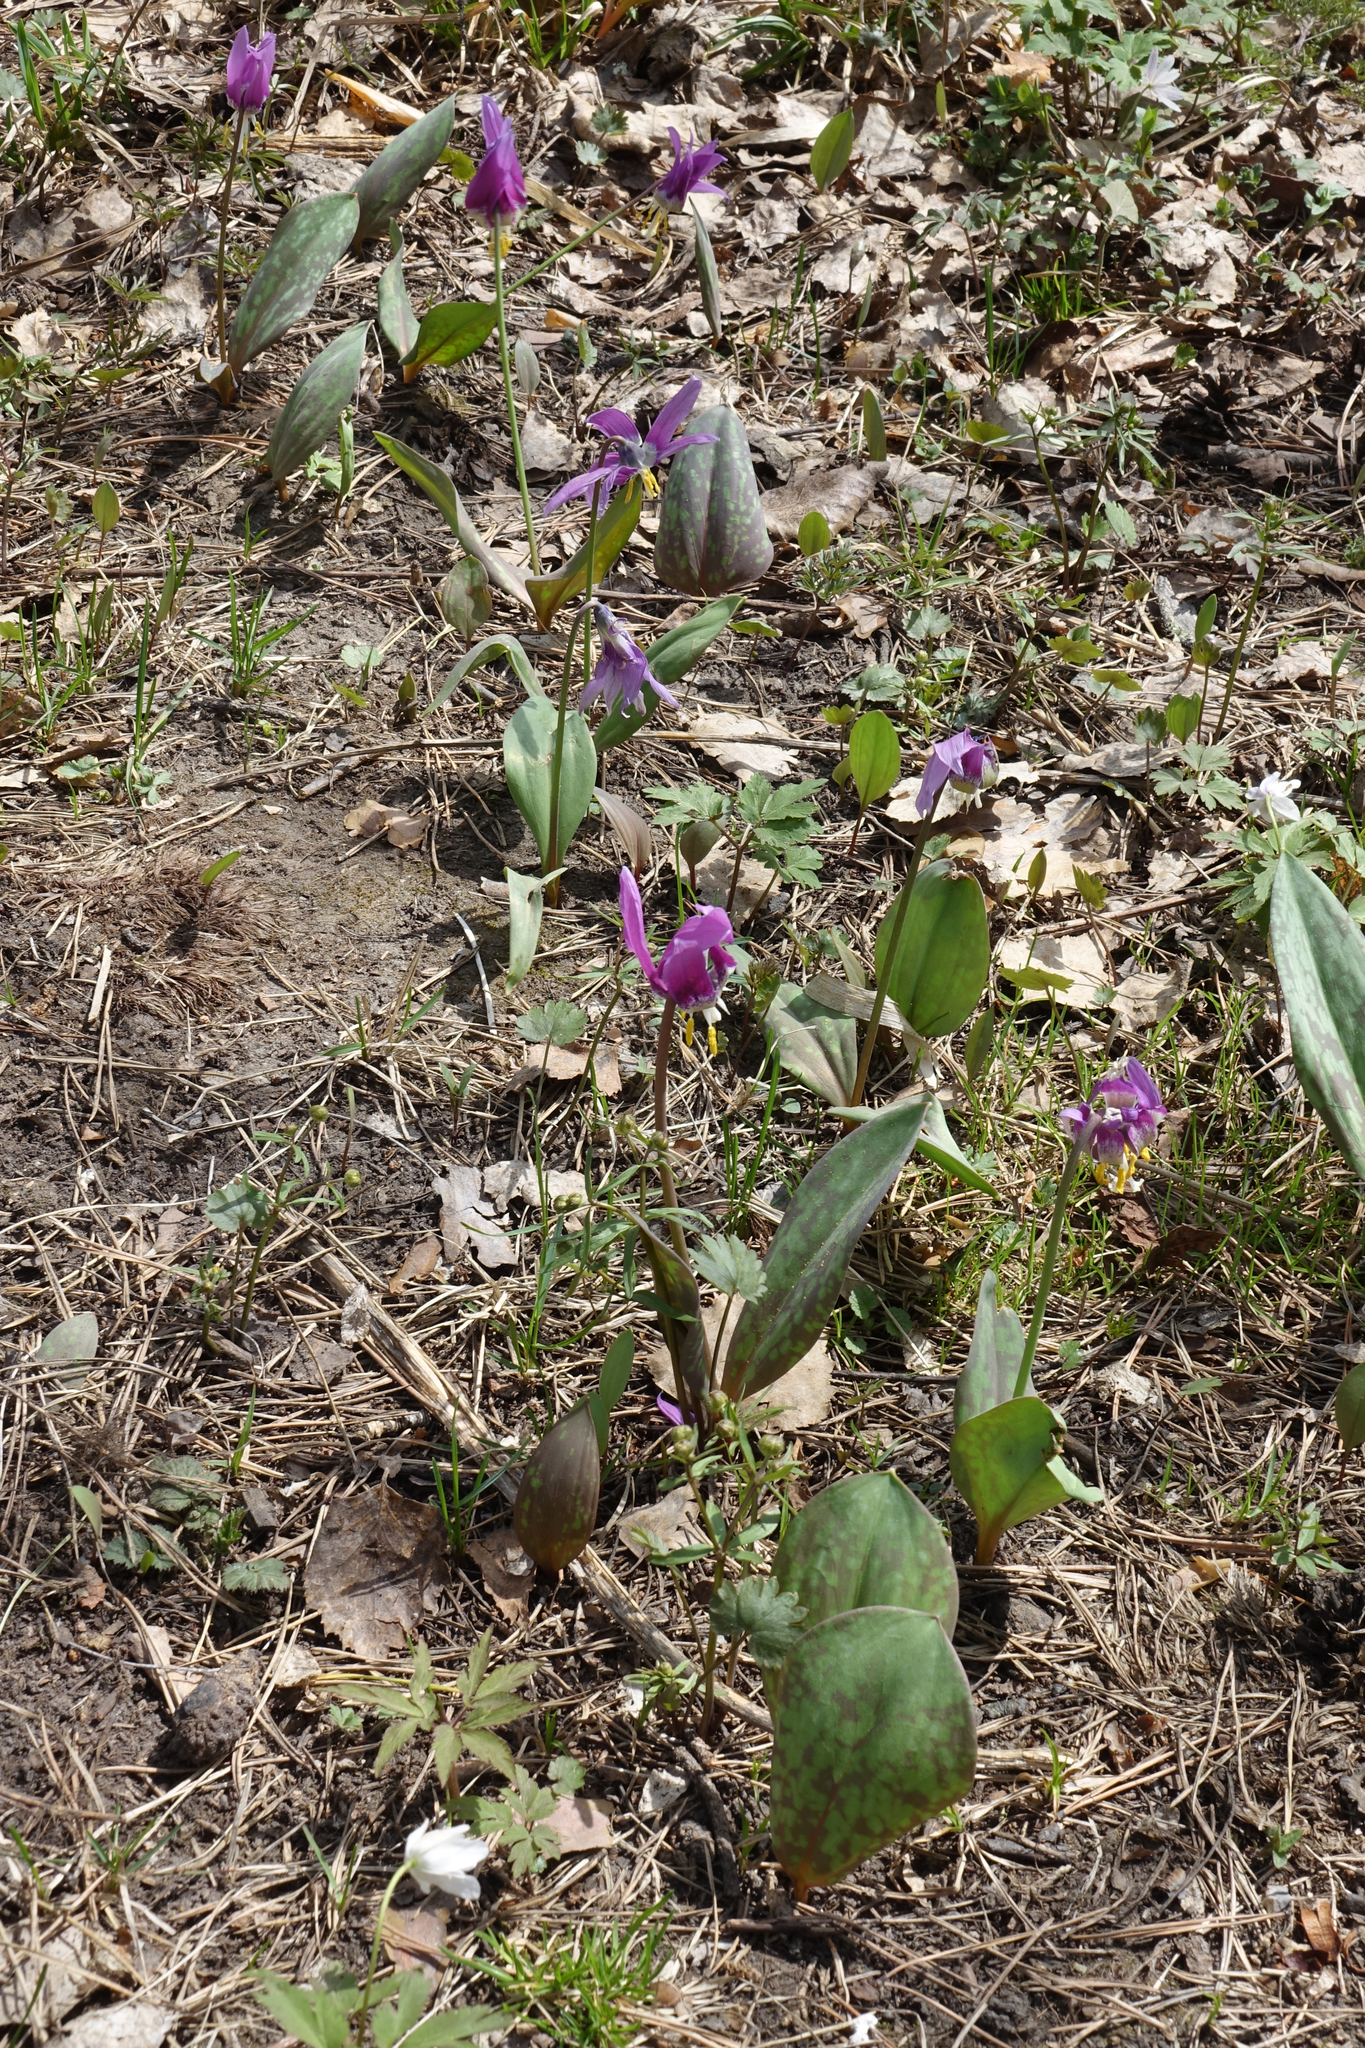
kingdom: Plantae
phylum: Tracheophyta
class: Liliopsida
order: Liliales
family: Liliaceae
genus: Erythronium
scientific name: Erythronium sibiricum
